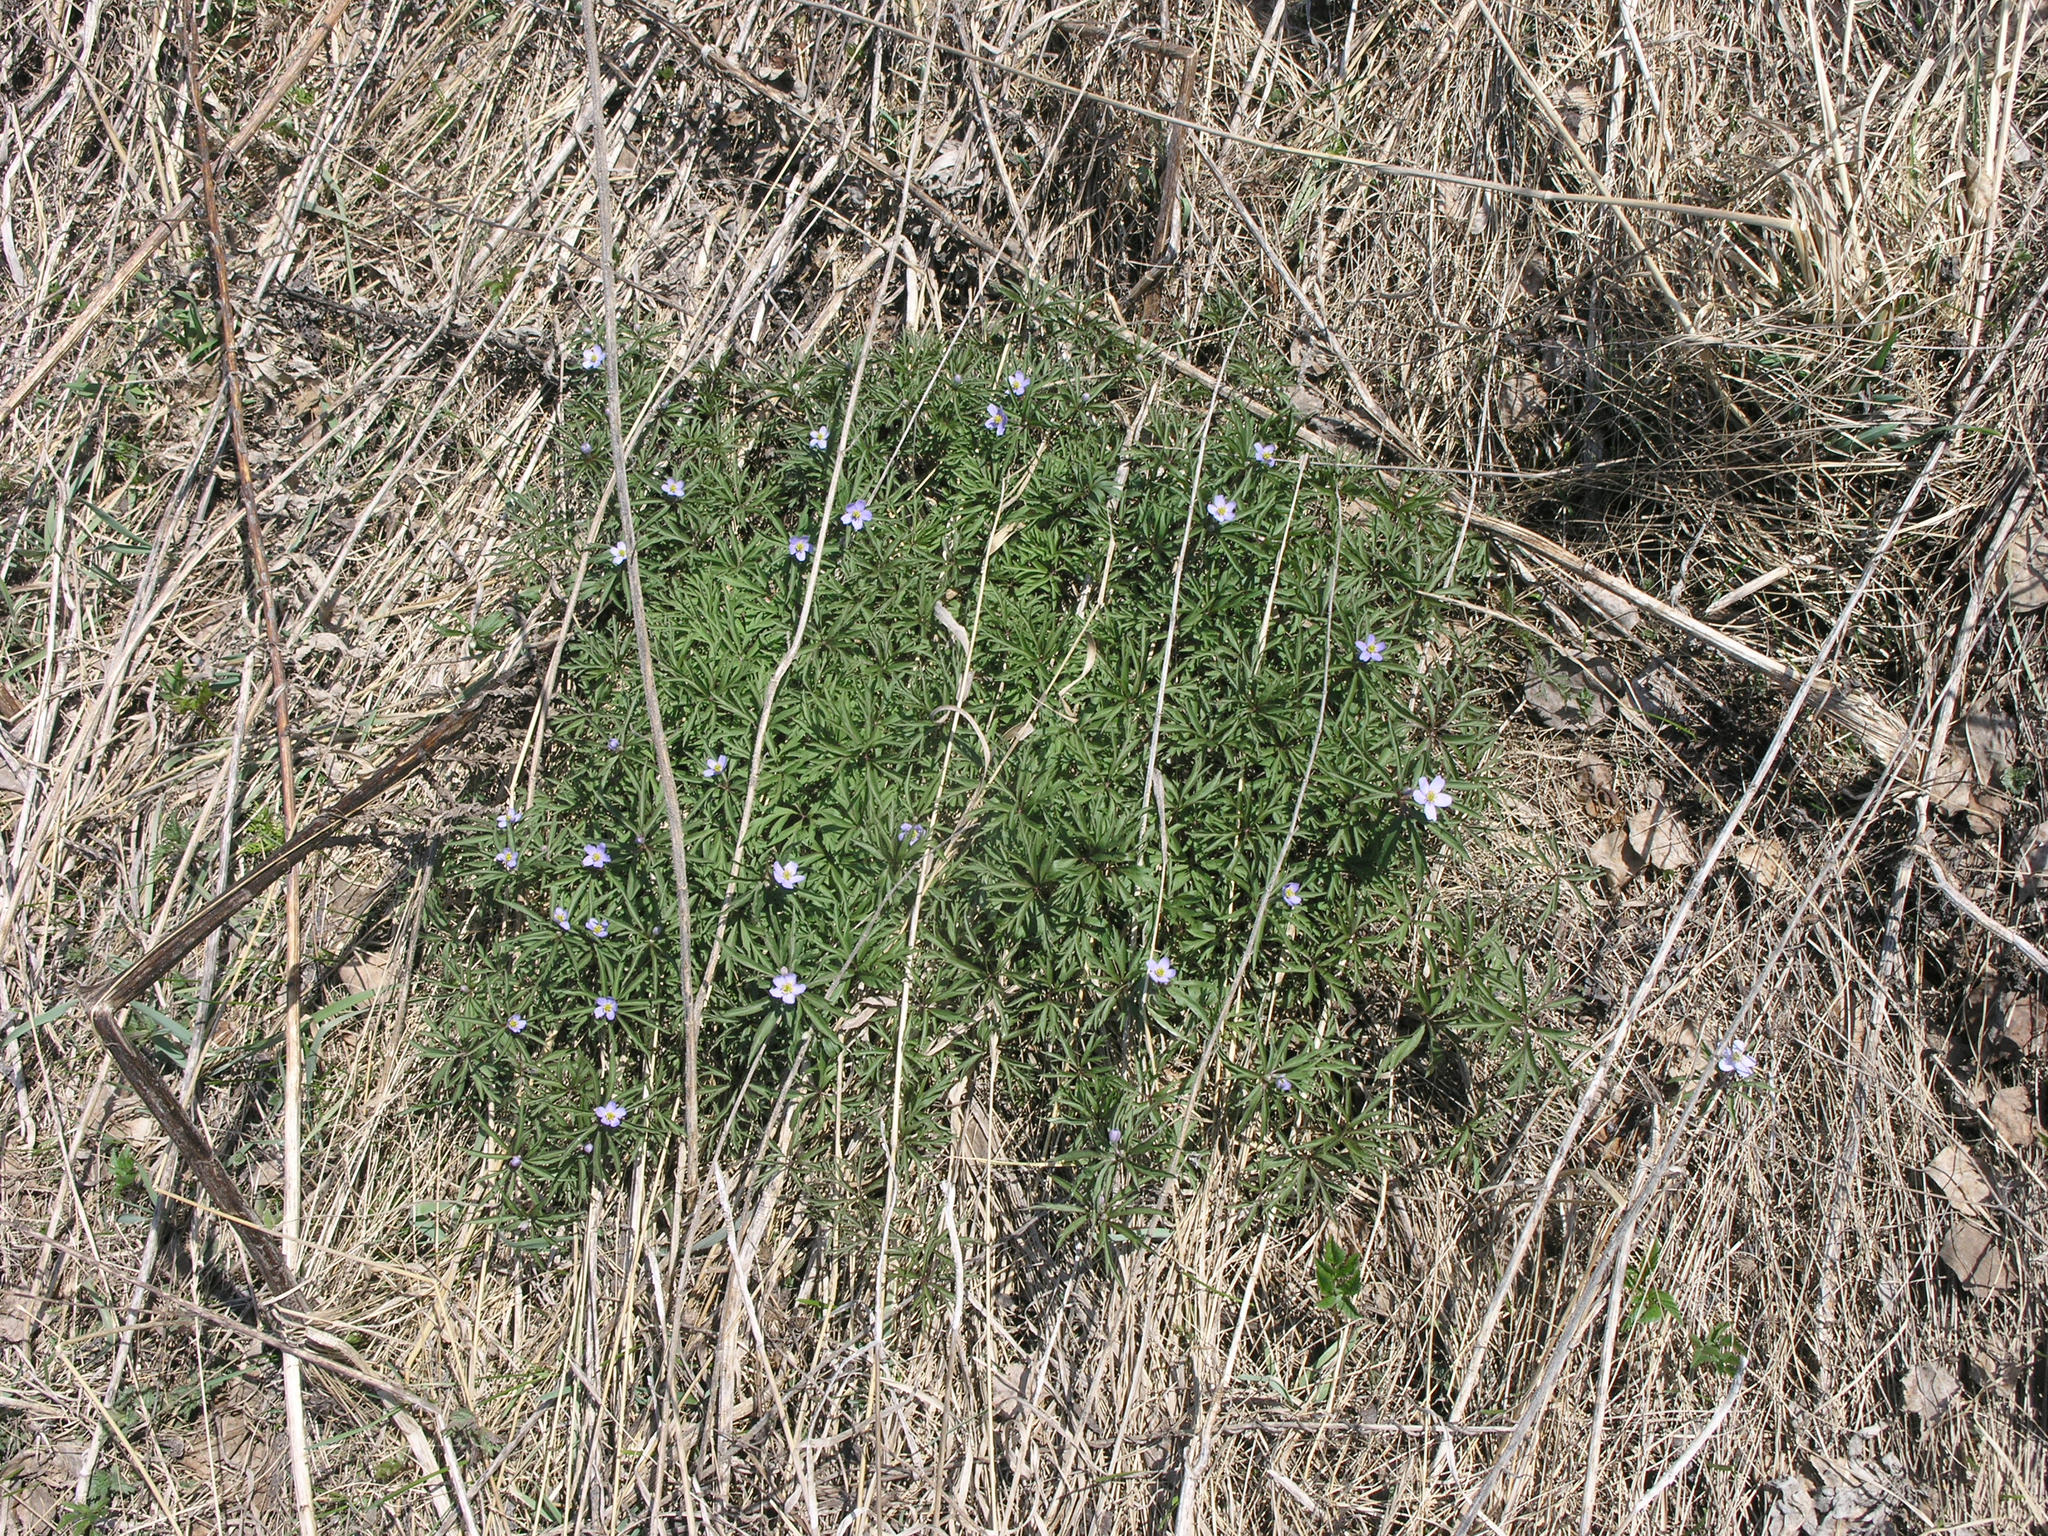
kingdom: Plantae
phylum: Tracheophyta
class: Magnoliopsida
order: Ranunculales
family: Ranunculaceae
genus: Anemone
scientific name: Anemone caerulea
